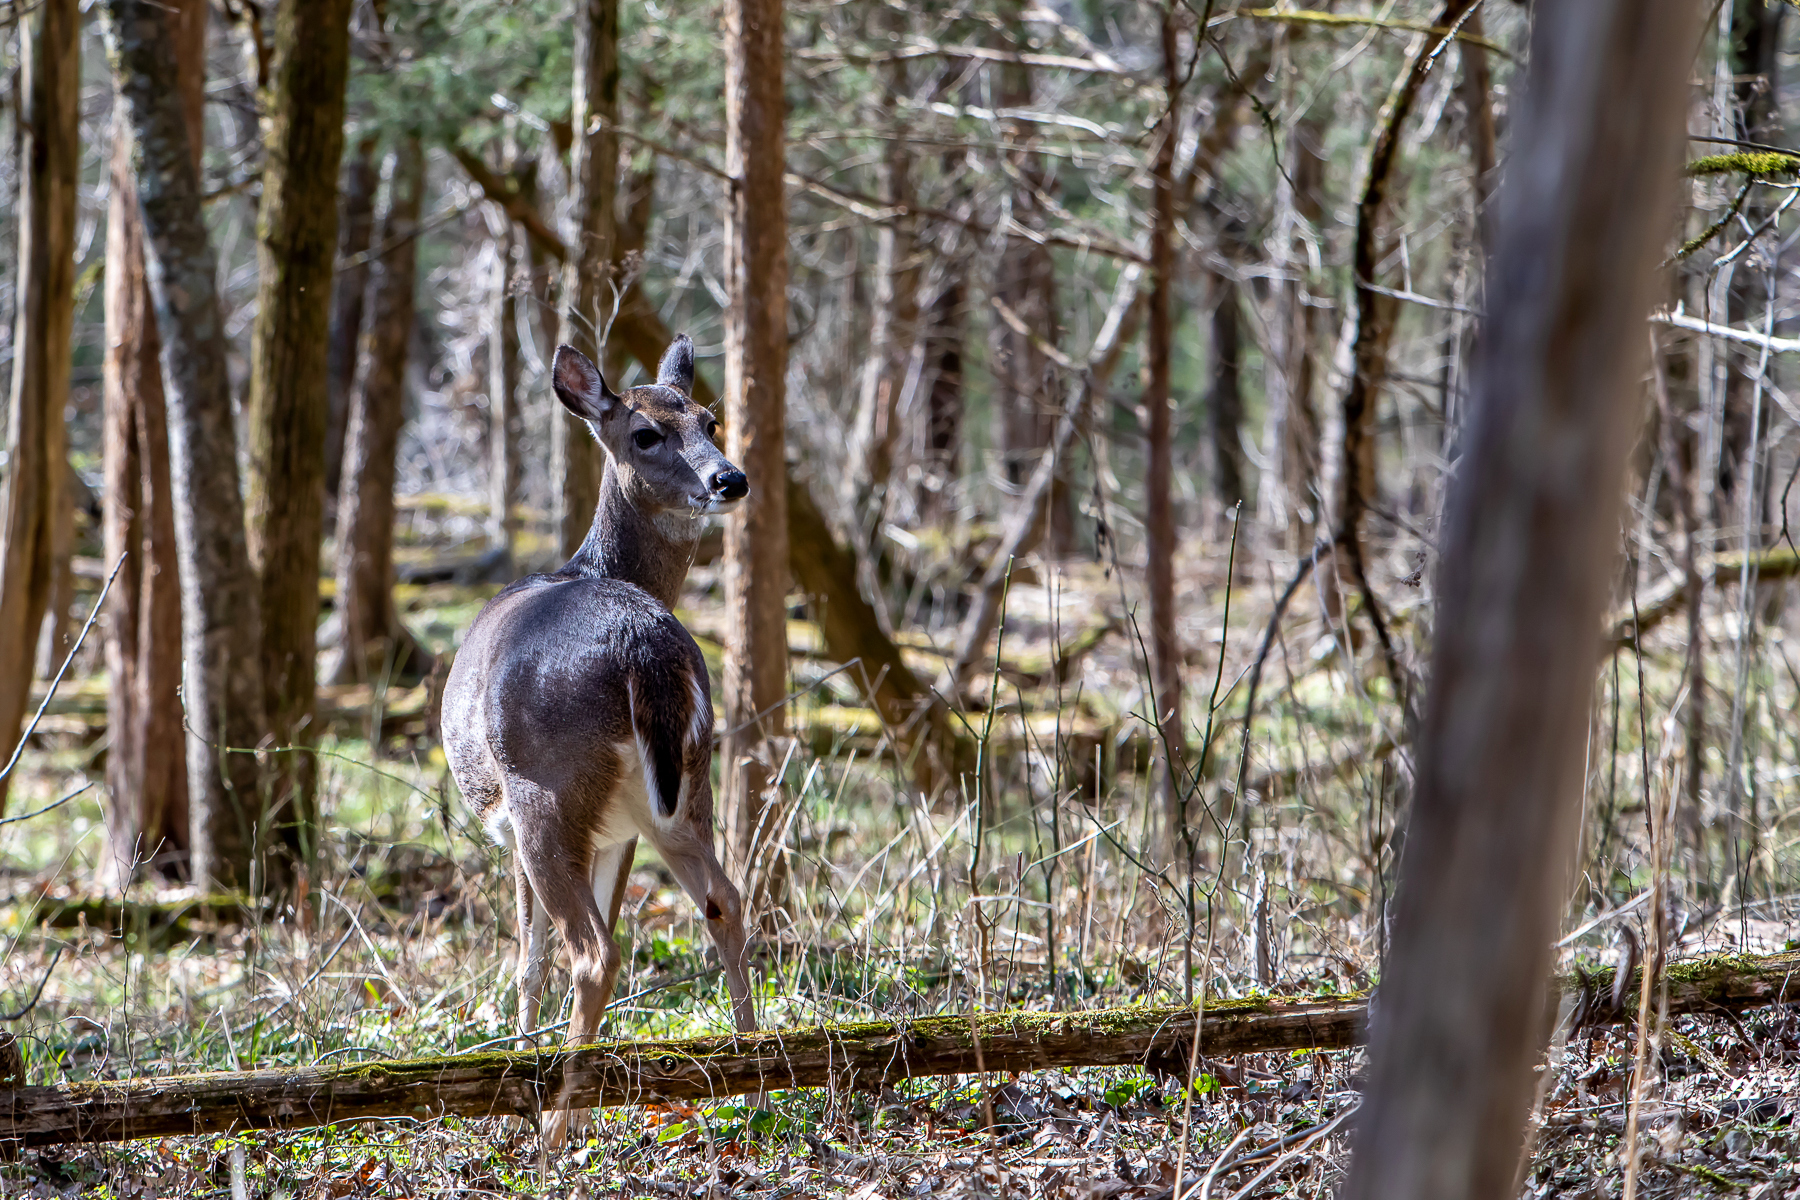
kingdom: Animalia
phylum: Chordata
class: Mammalia
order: Artiodactyla
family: Cervidae
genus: Odocoileus
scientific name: Odocoileus virginianus
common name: White-tailed deer
